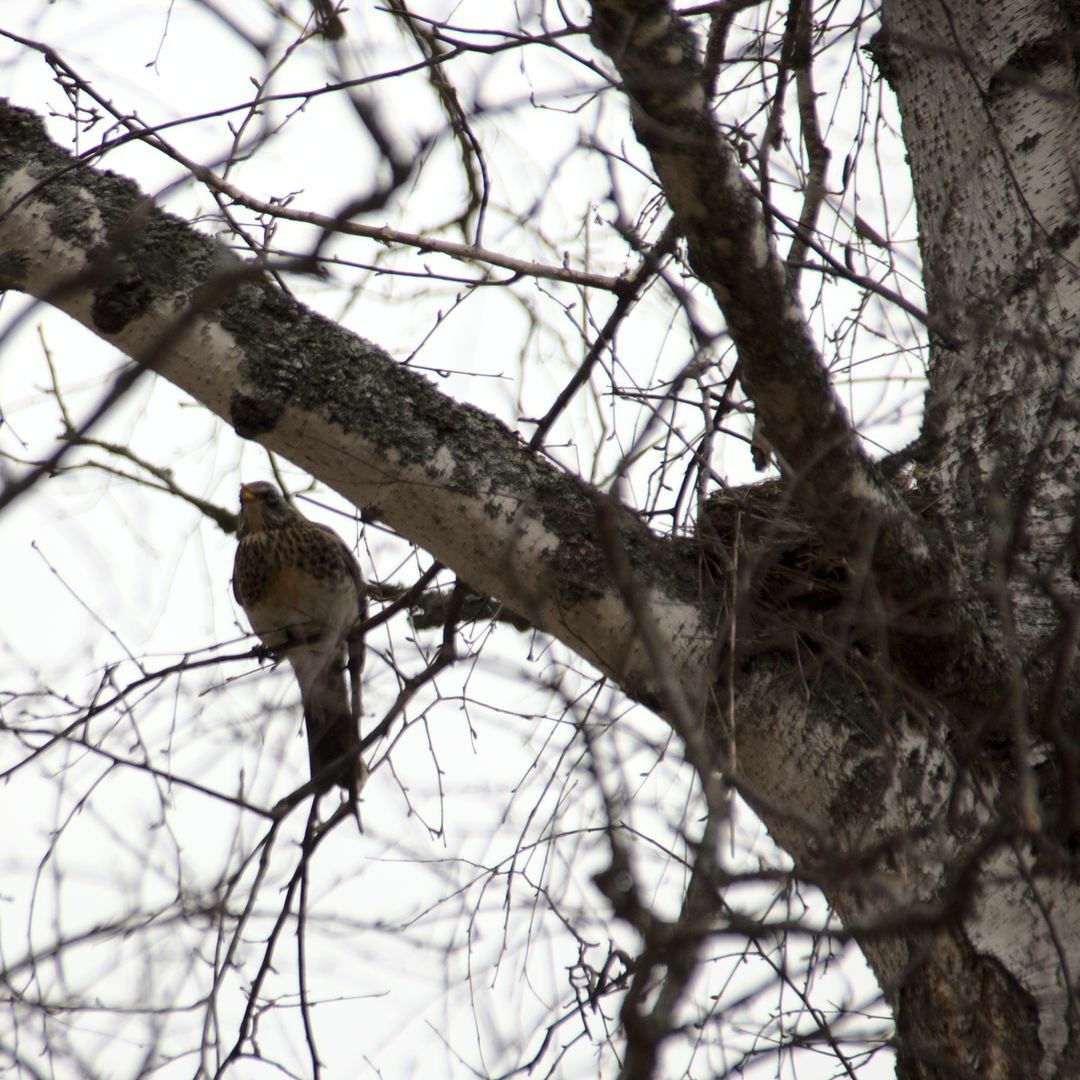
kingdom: Animalia
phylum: Chordata
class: Aves
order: Passeriformes
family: Turdidae
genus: Turdus
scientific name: Turdus pilaris
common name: Fieldfare
